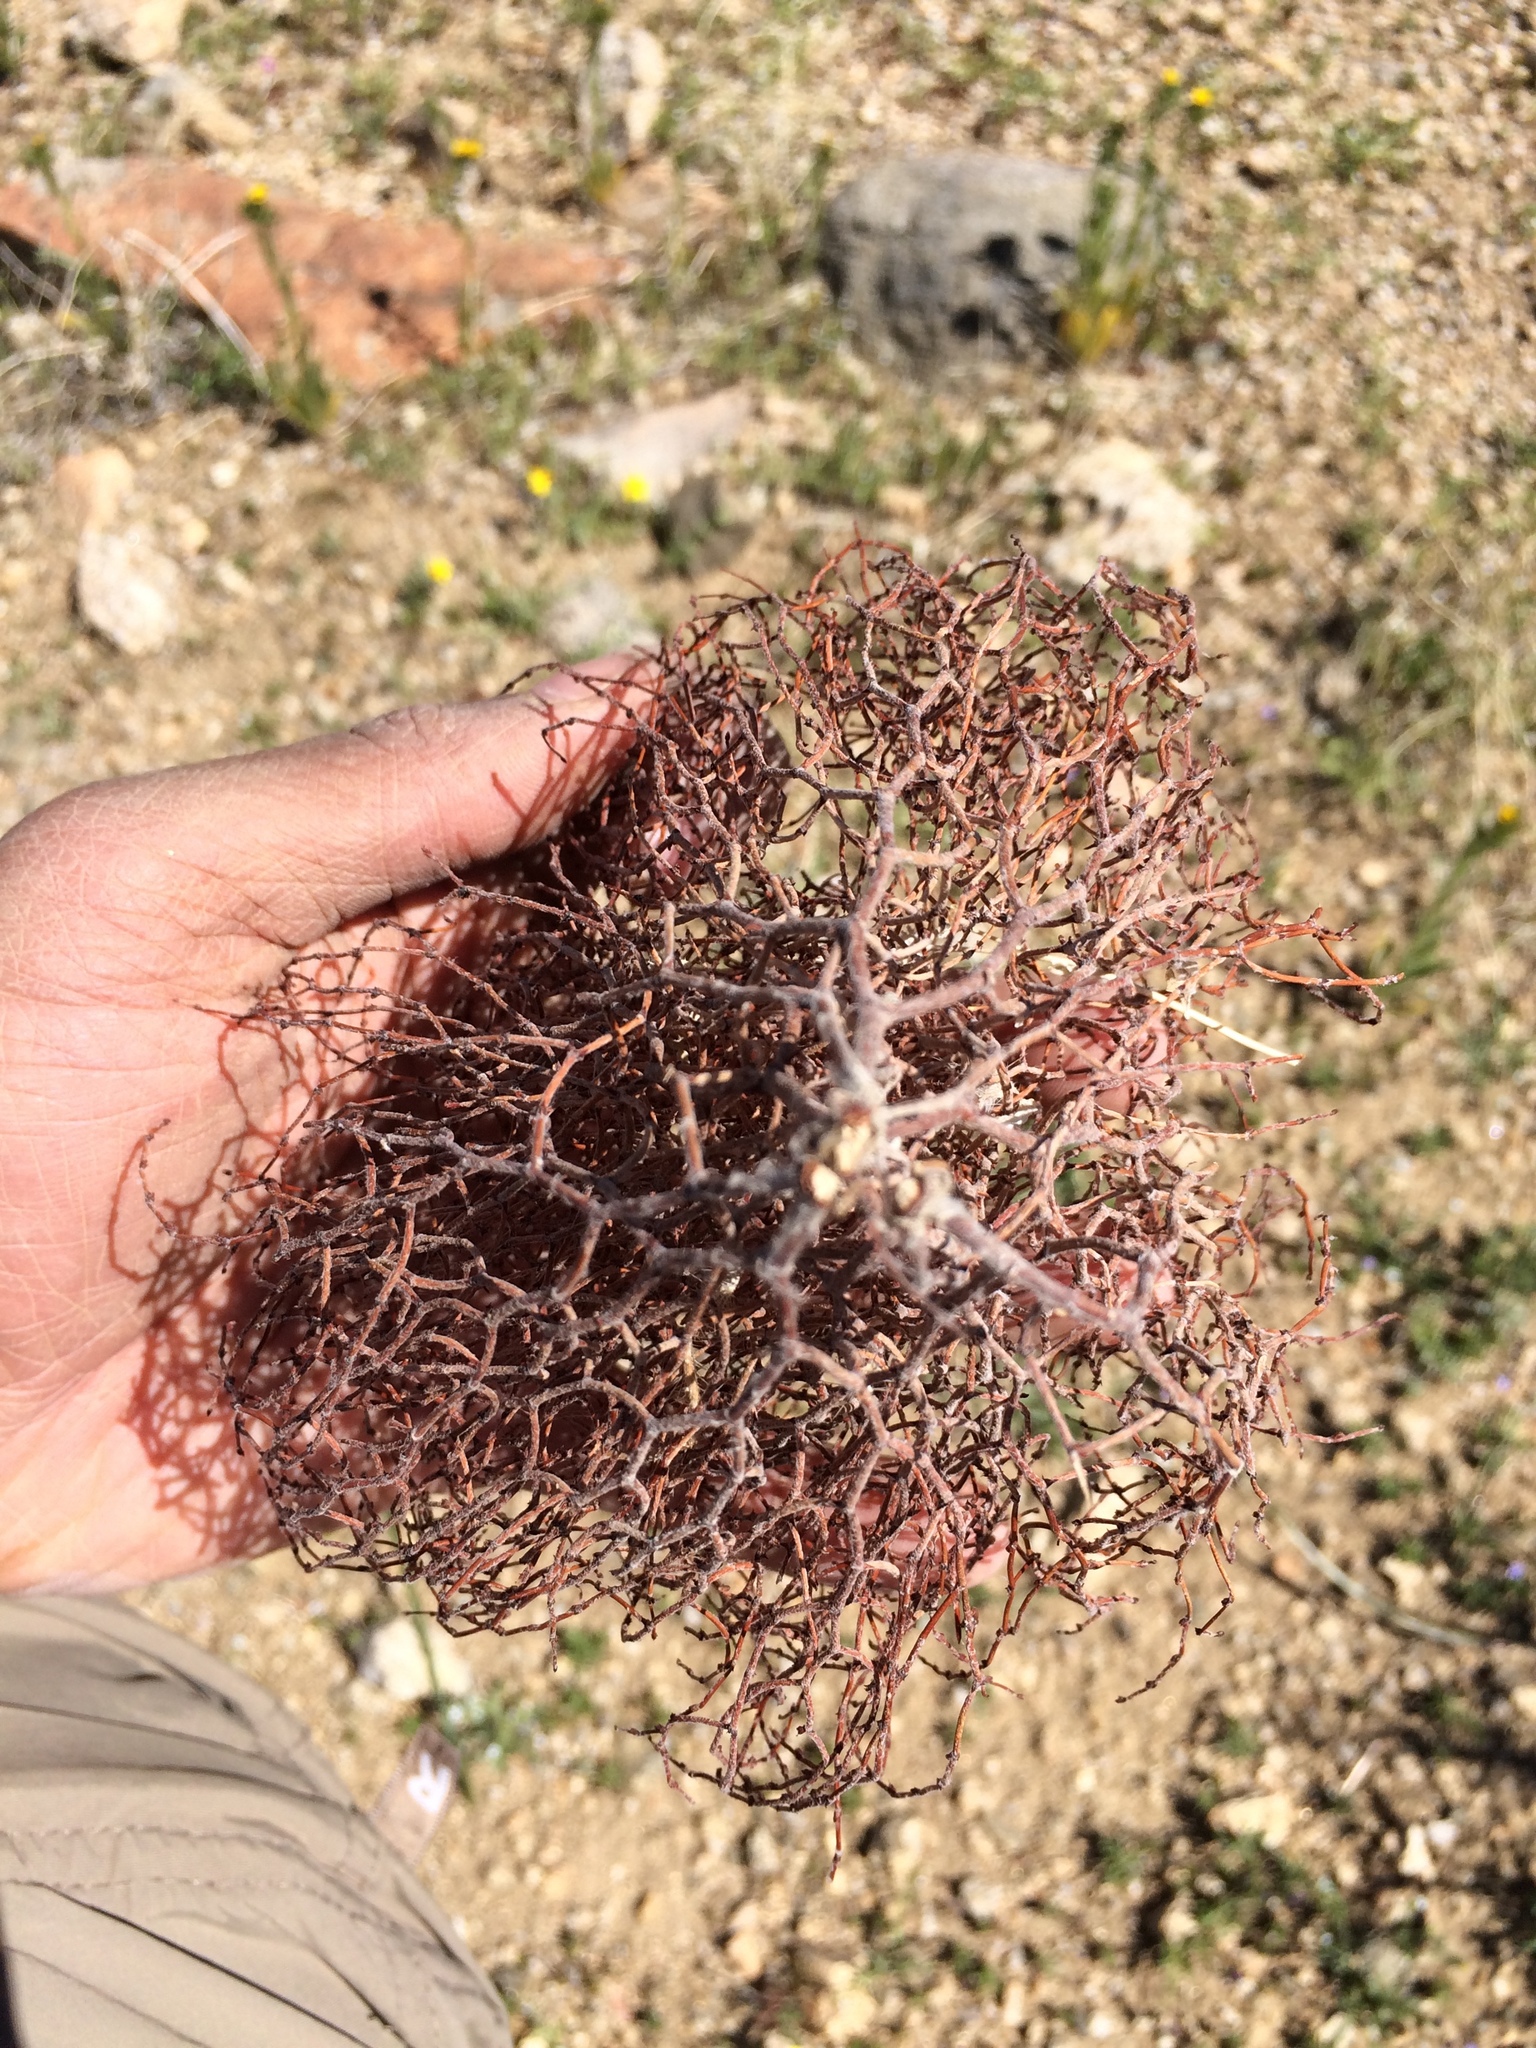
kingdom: Plantae
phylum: Tracheophyta
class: Magnoliopsida
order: Caryophyllales
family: Polygonaceae
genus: Eriogonum
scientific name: Eriogonum nidularium
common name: Bird's-nest wild buckwheat
